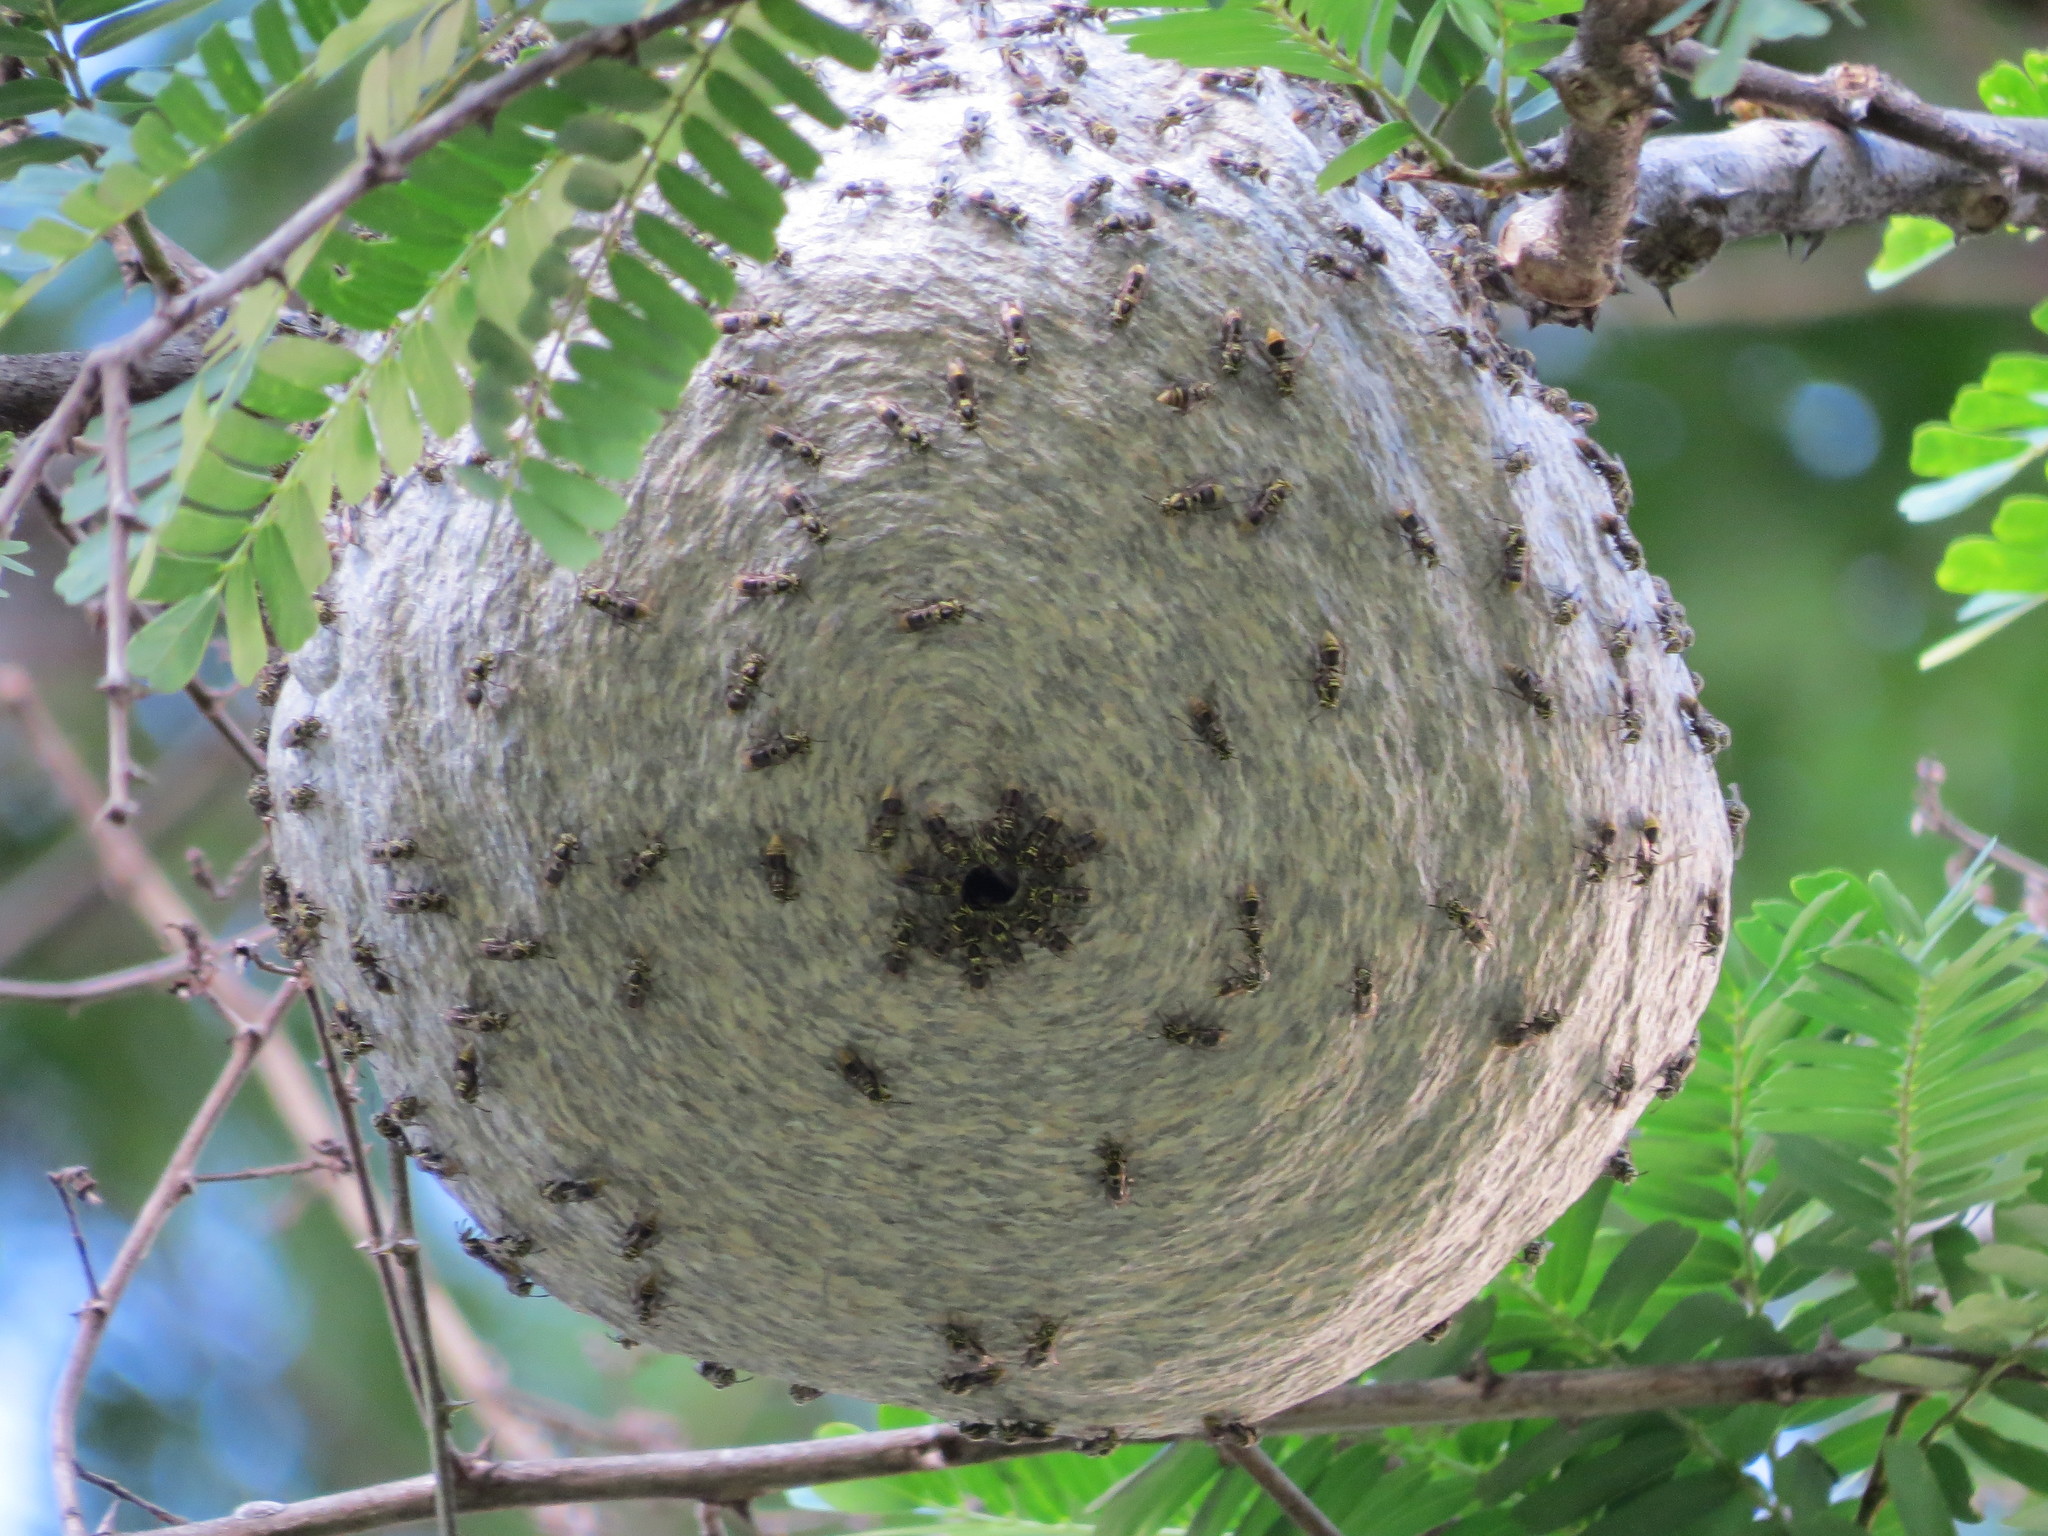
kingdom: Animalia
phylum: Arthropoda
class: Insecta
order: Hymenoptera
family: Vespidae
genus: Protonectarina
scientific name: Protonectarina sylveirae
